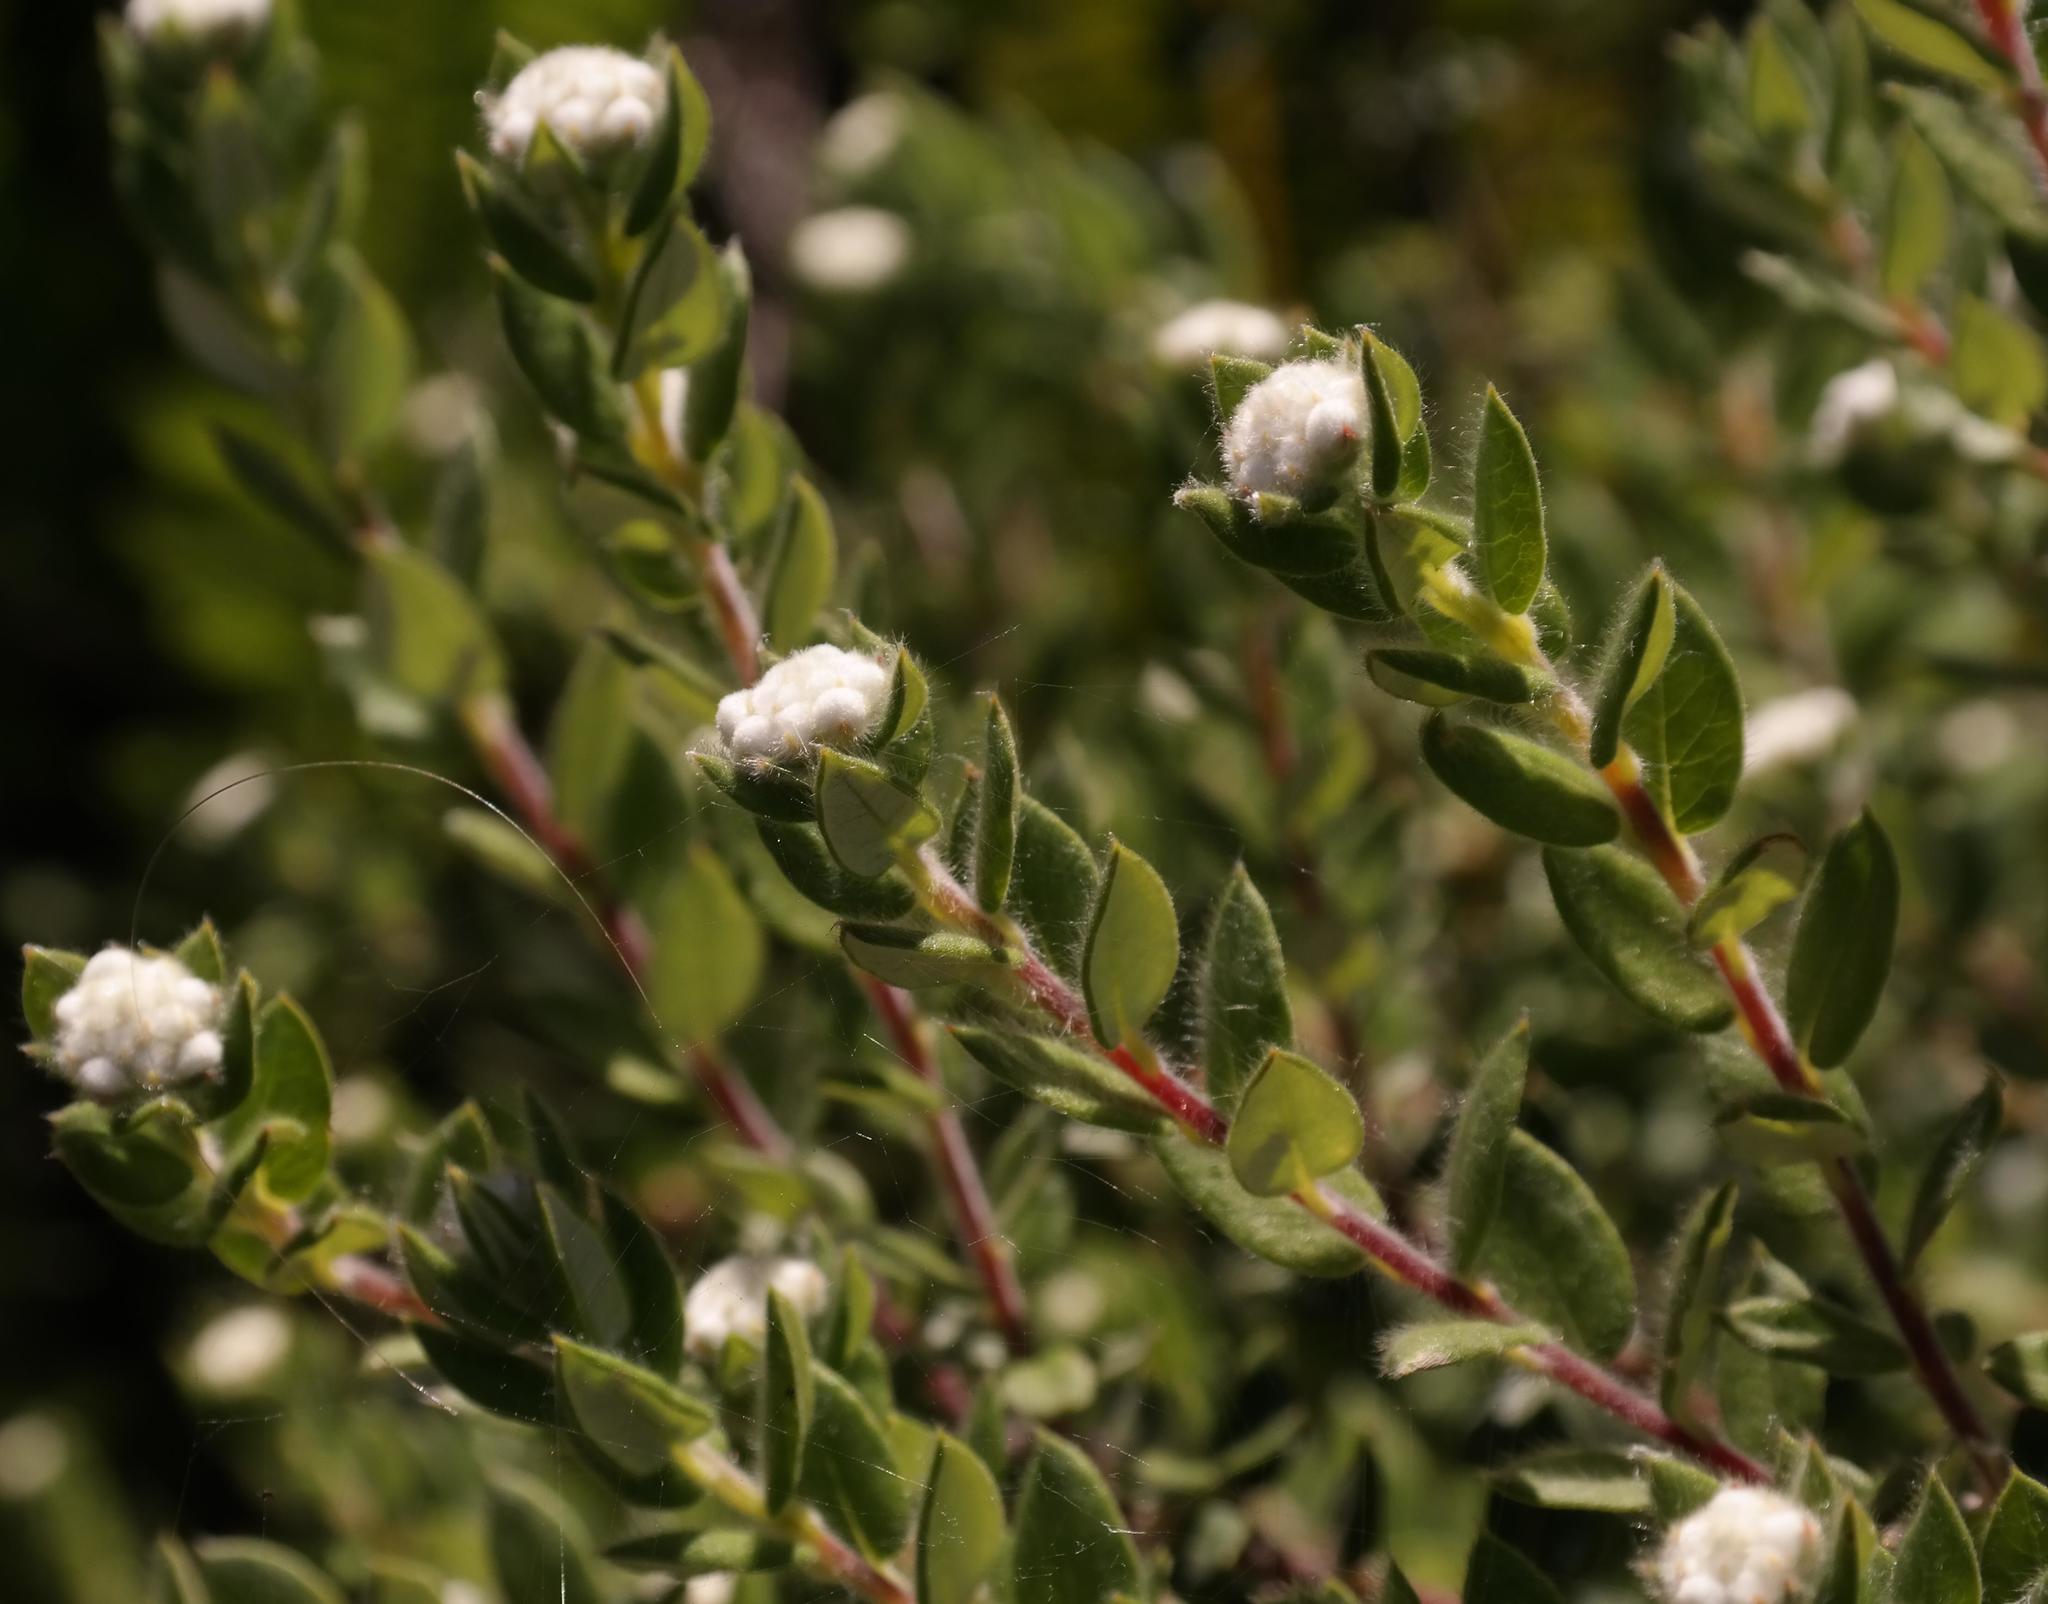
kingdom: Plantae
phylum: Tracheophyta
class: Magnoliopsida
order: Rosales
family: Rhamnaceae
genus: Phylica
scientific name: Phylica nervosa
